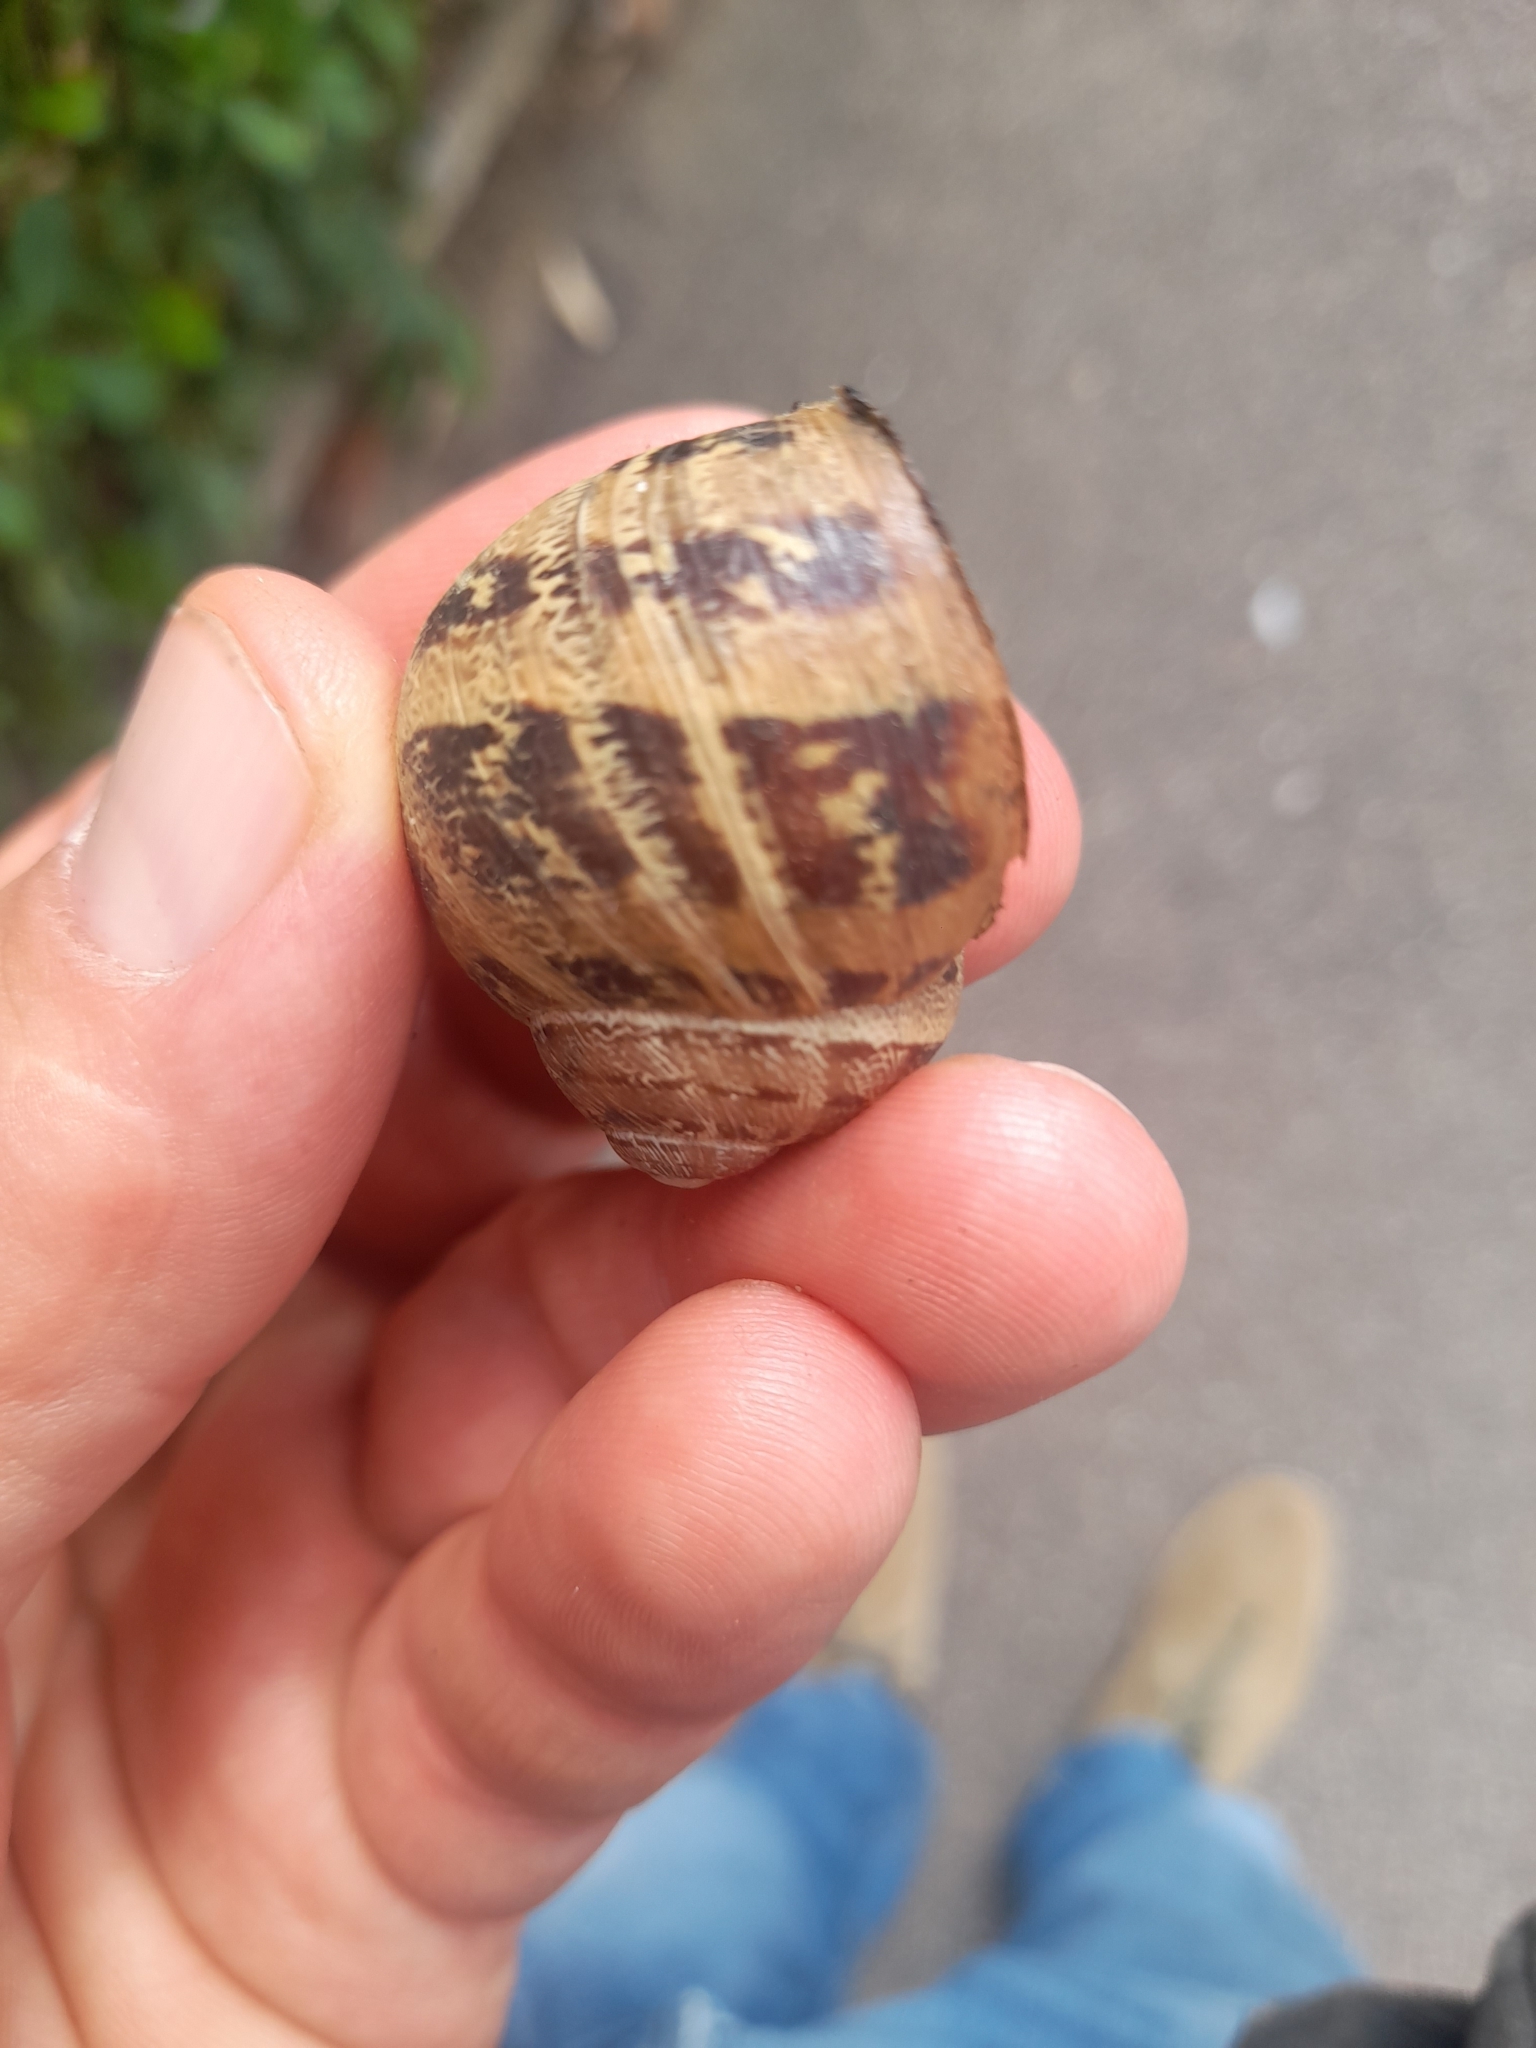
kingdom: Animalia
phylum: Mollusca
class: Gastropoda
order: Stylommatophora
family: Helicidae
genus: Cornu
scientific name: Cornu aspersum
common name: Brown garden snail
